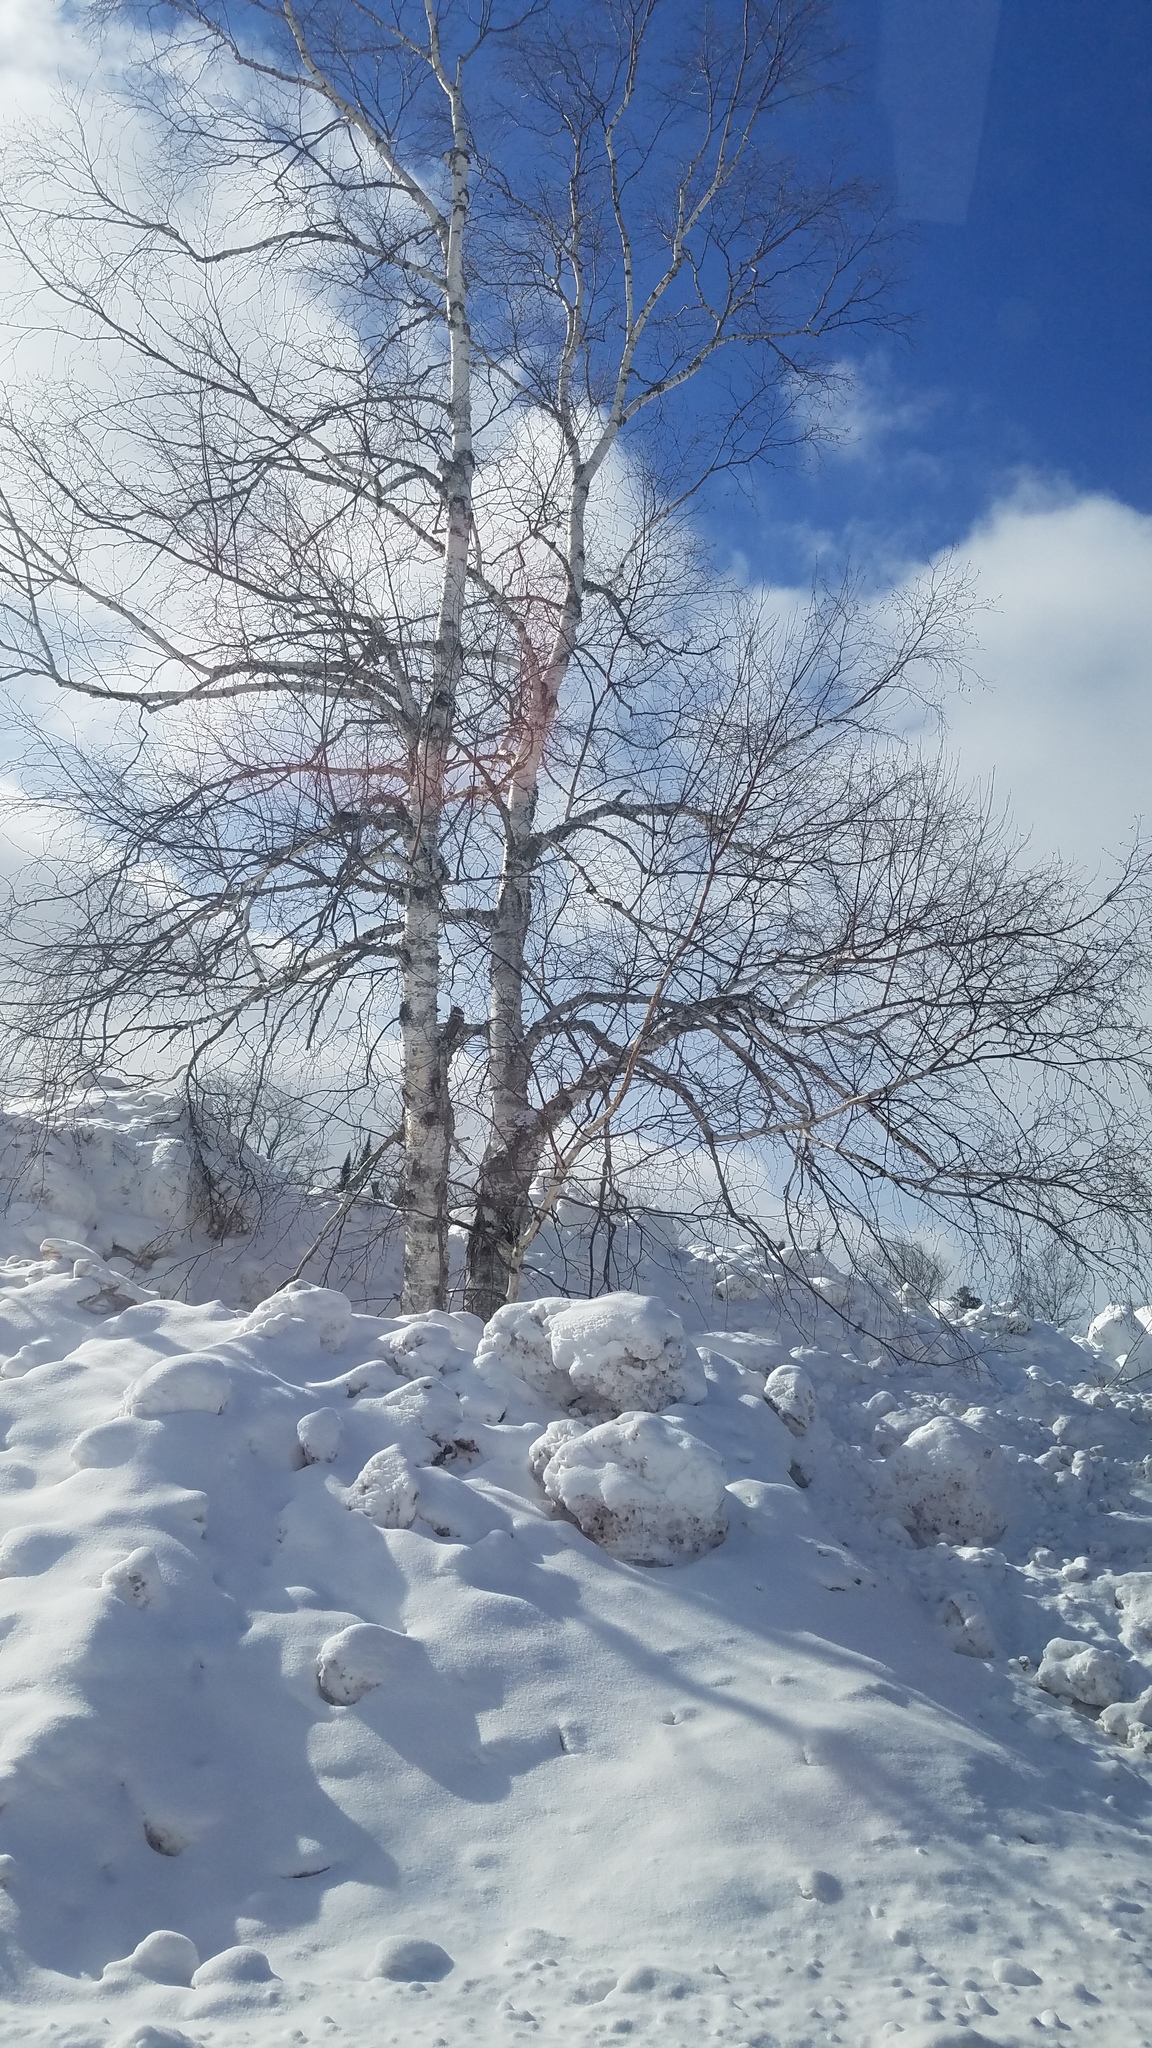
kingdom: Plantae
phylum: Tracheophyta
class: Magnoliopsida
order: Fagales
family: Betulaceae
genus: Betula
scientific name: Betula papyrifera
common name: Paper birch
